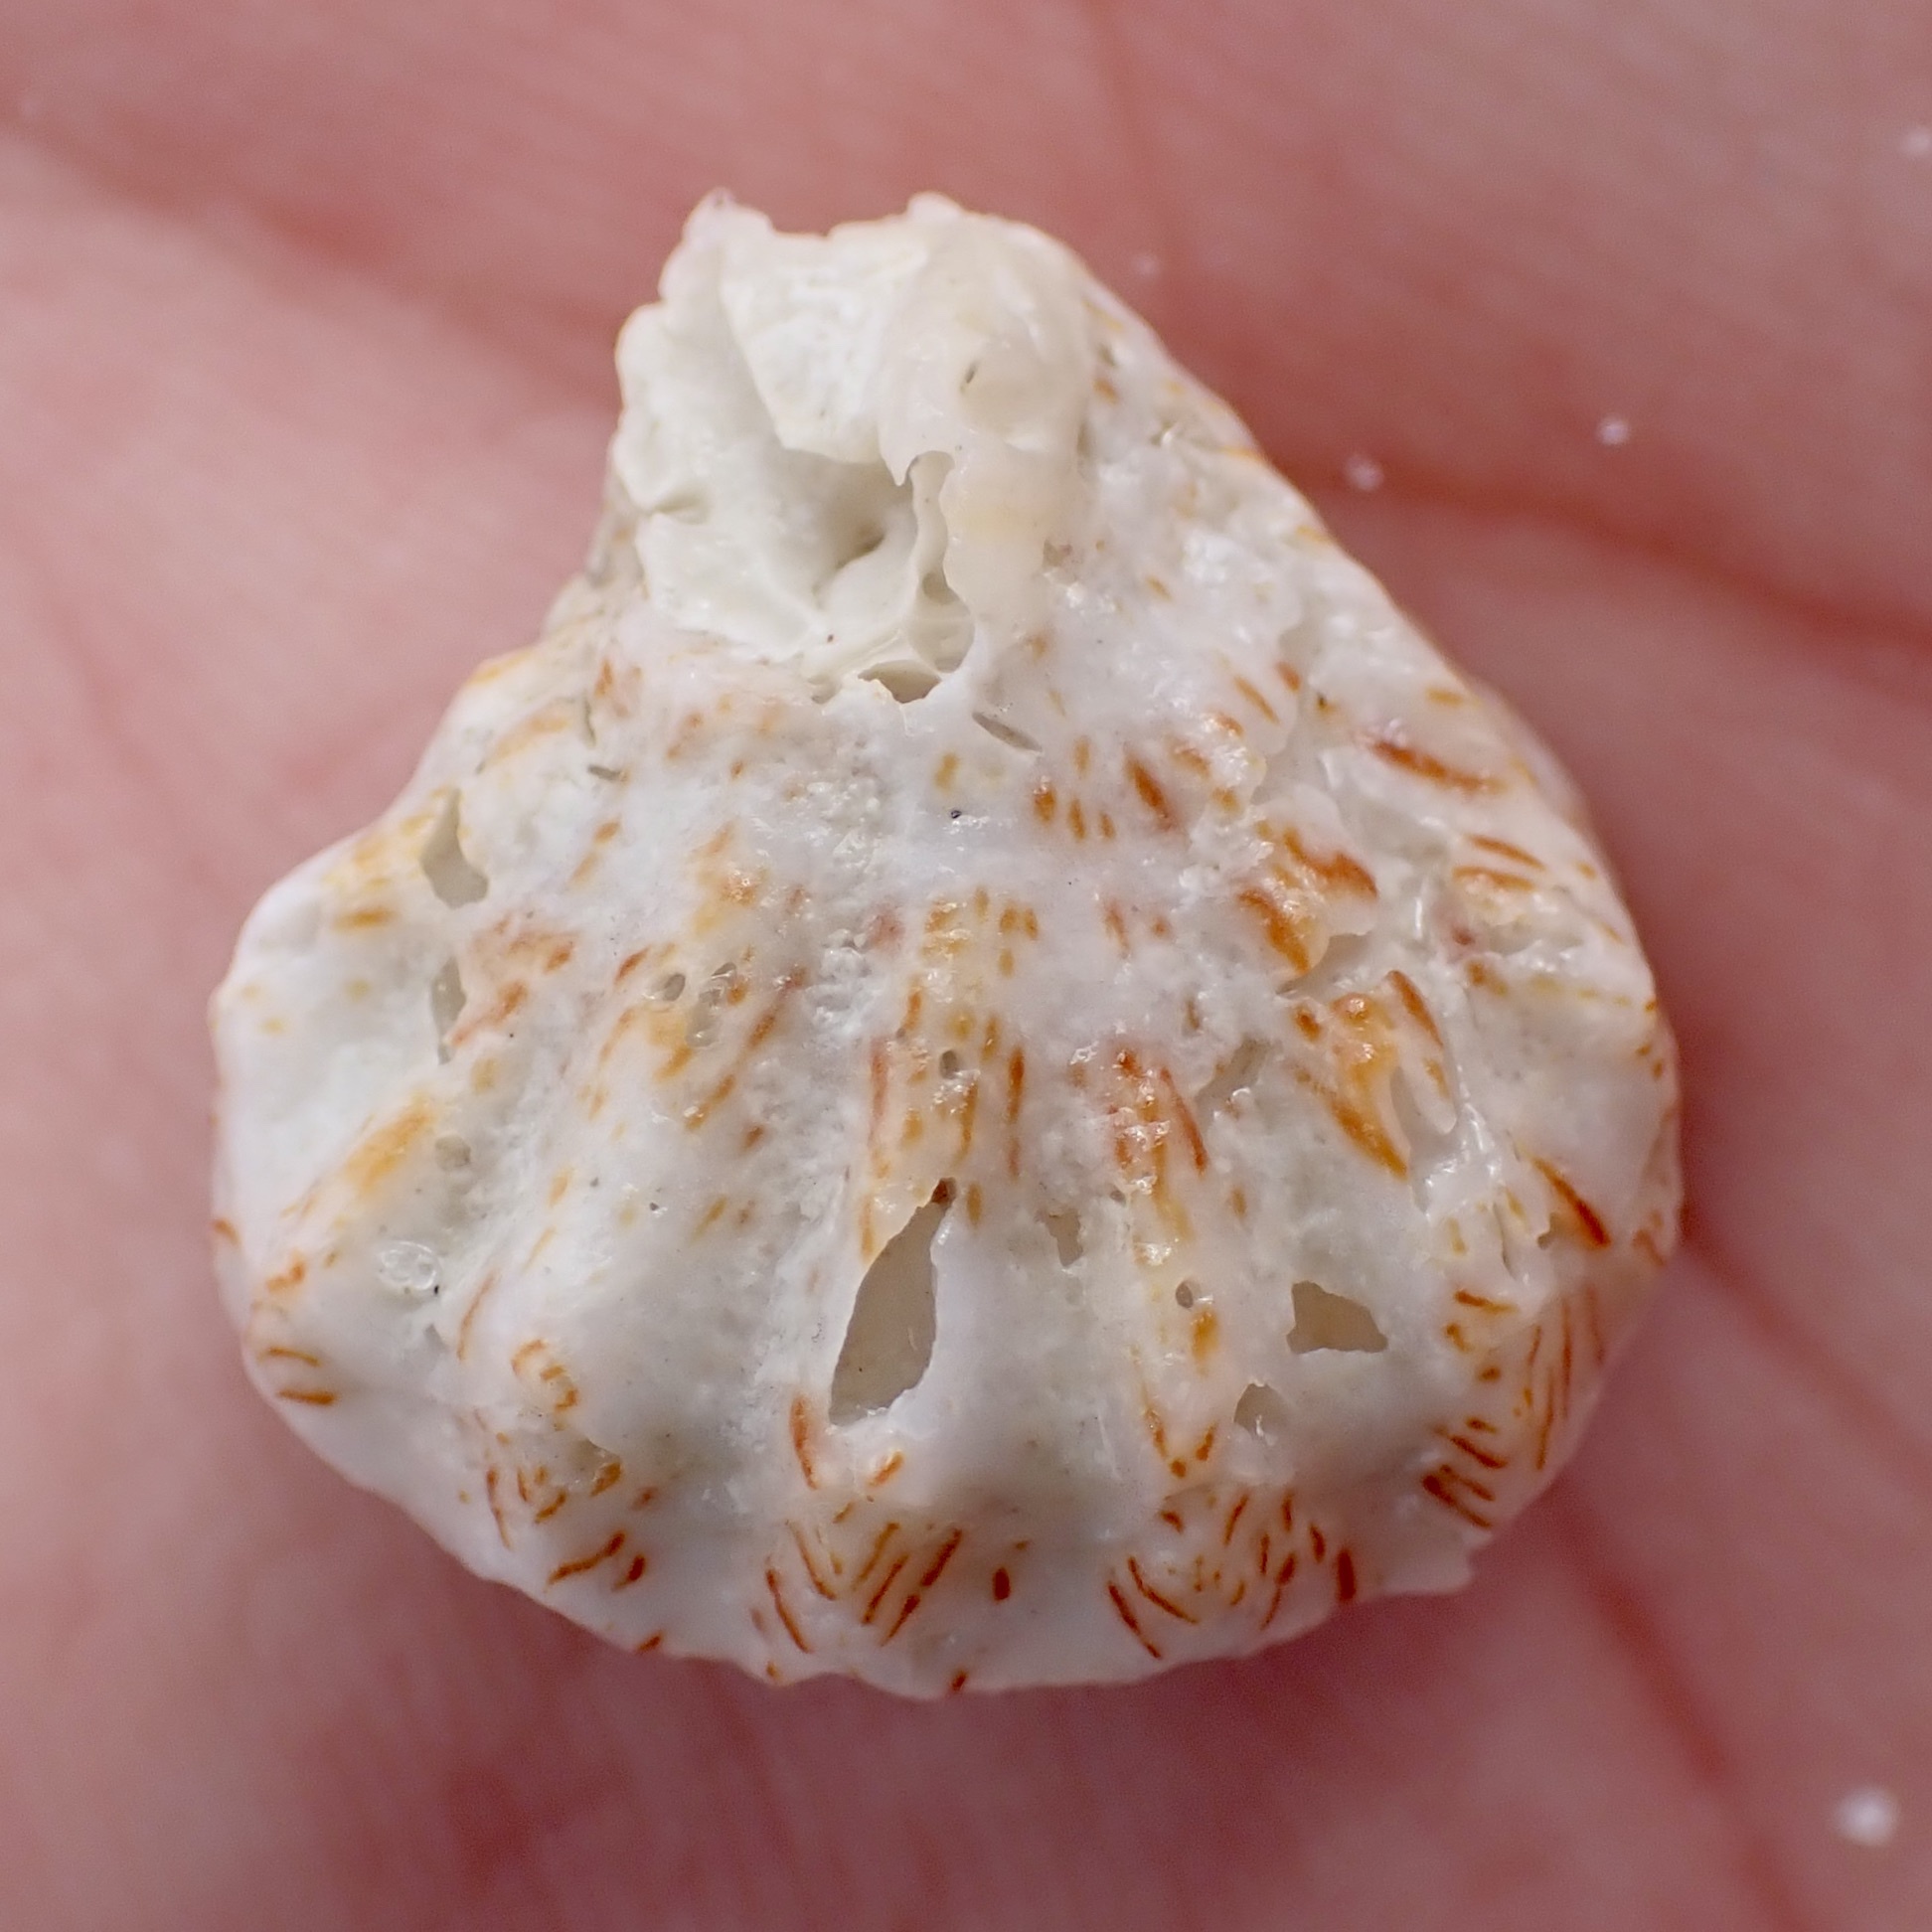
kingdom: Animalia
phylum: Mollusca
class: Bivalvia
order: Pectinida
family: Plicatulidae
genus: Plicatula
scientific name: Plicatula gibbosa
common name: Atlantic kitten's paw
